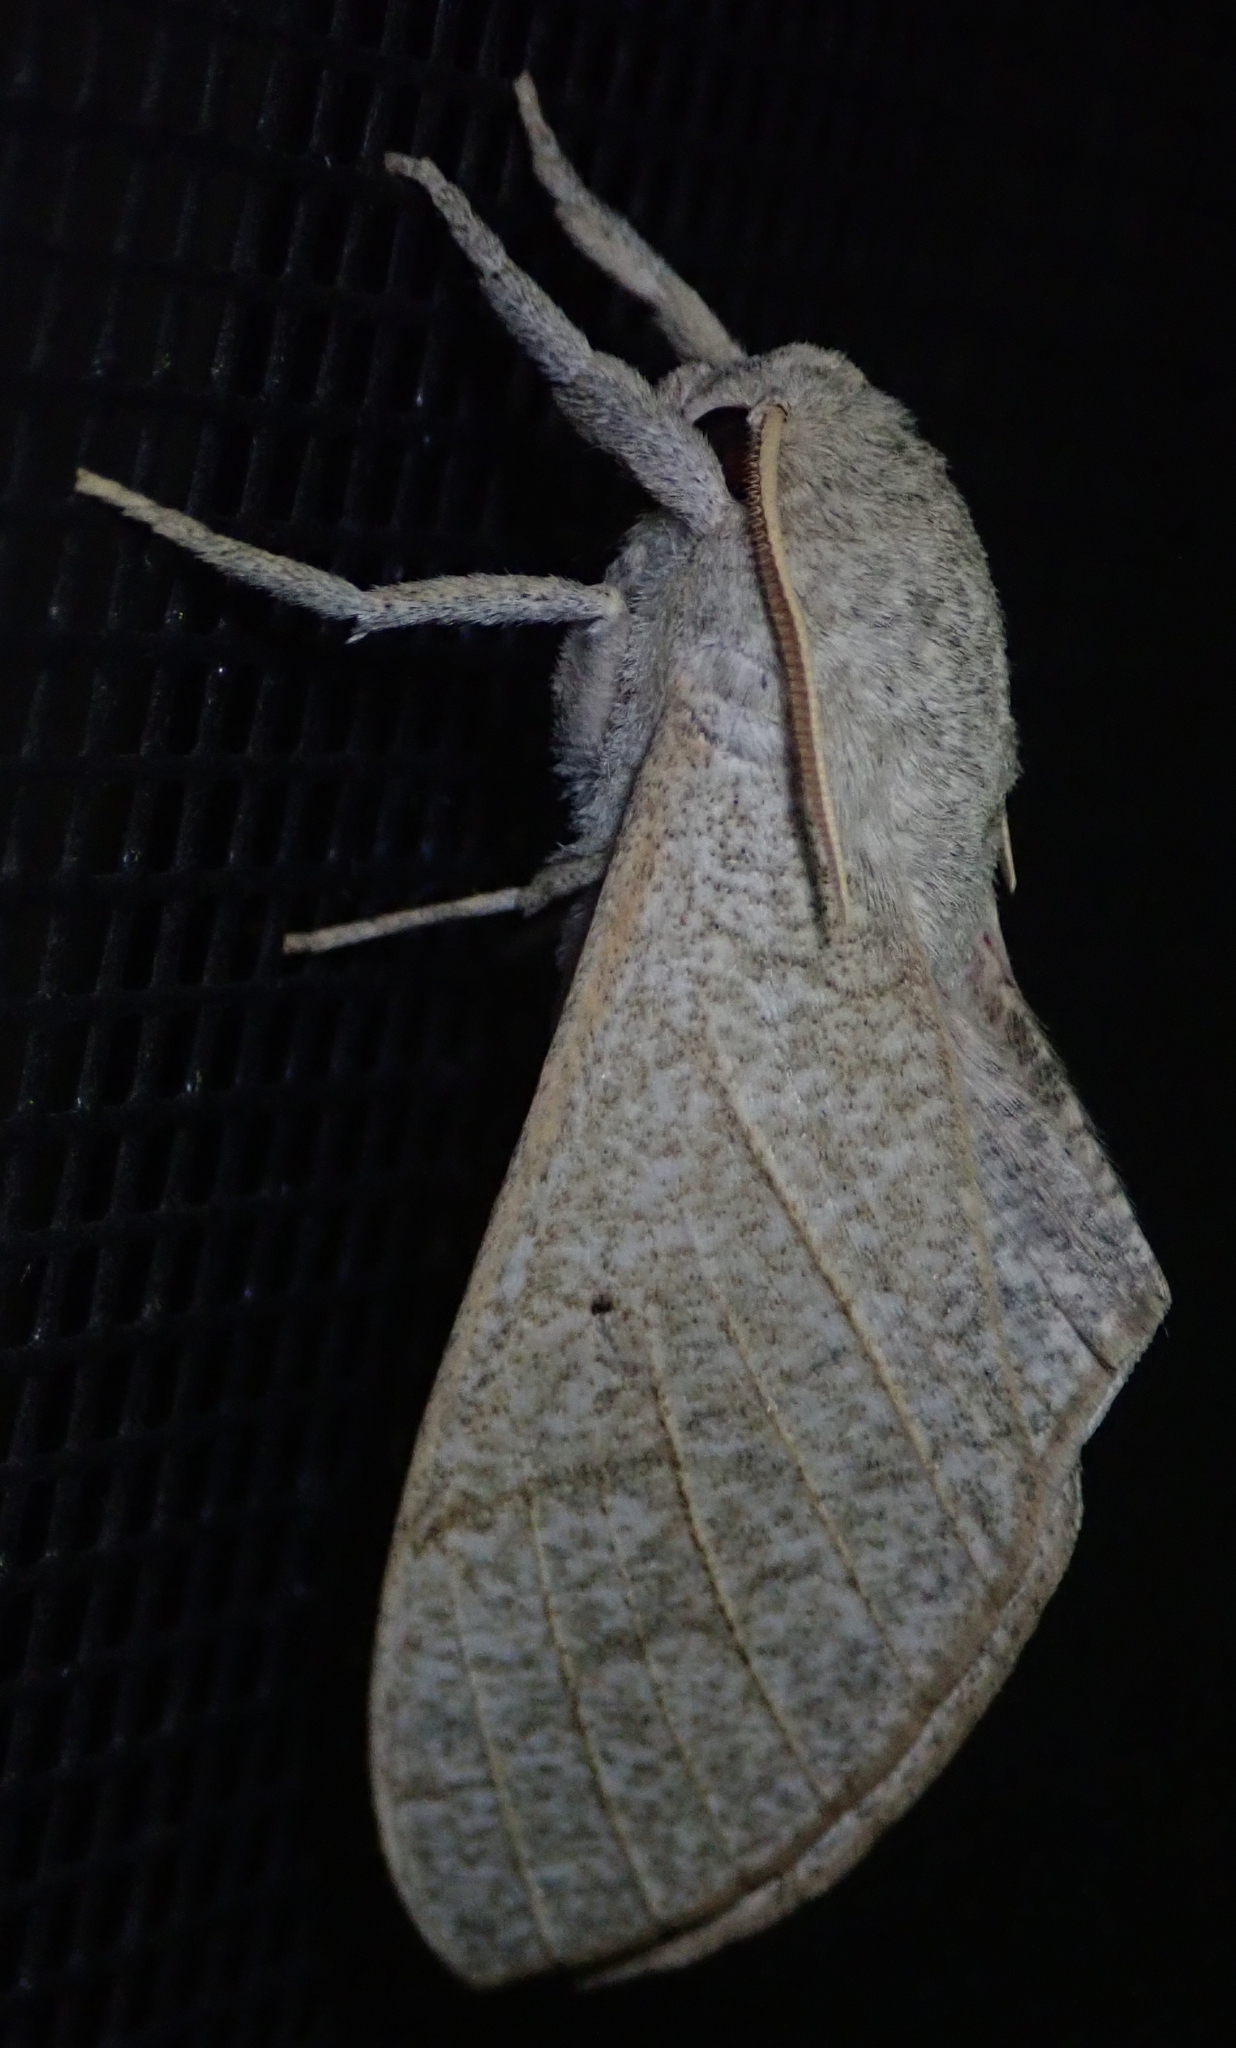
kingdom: Animalia
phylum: Arthropoda
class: Insecta
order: Lepidoptera
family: Sphingidae
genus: Neoclanis
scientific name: Neoclanis basalis
